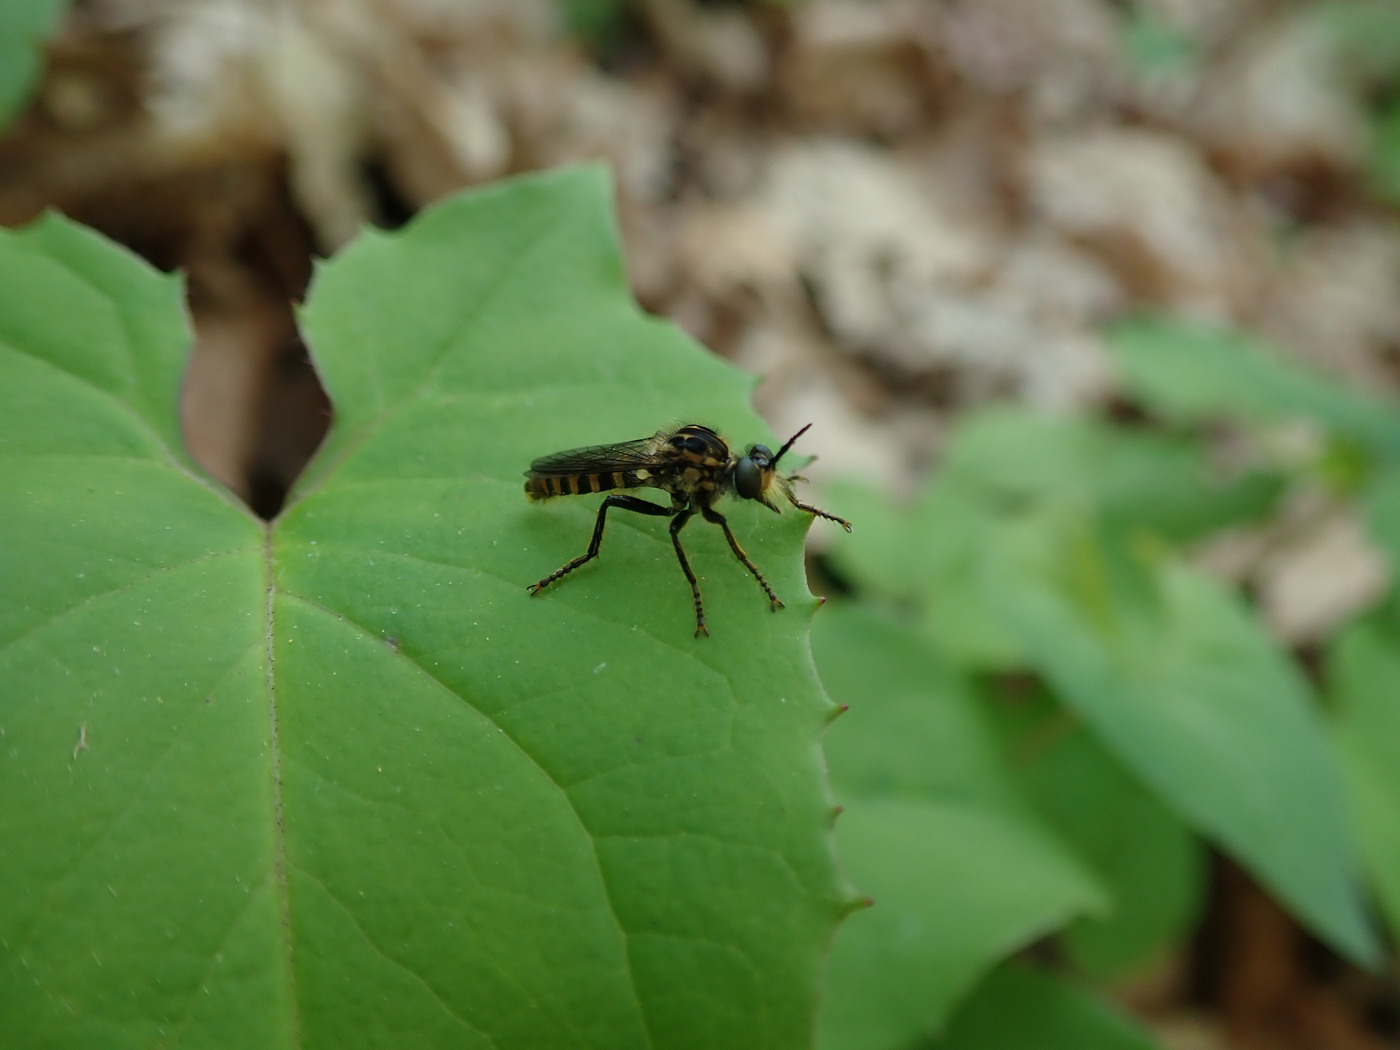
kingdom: Animalia
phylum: Arthropoda
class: Insecta
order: Diptera
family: Asilidae
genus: Ceraturgus
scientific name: Ceraturgus nigripes
